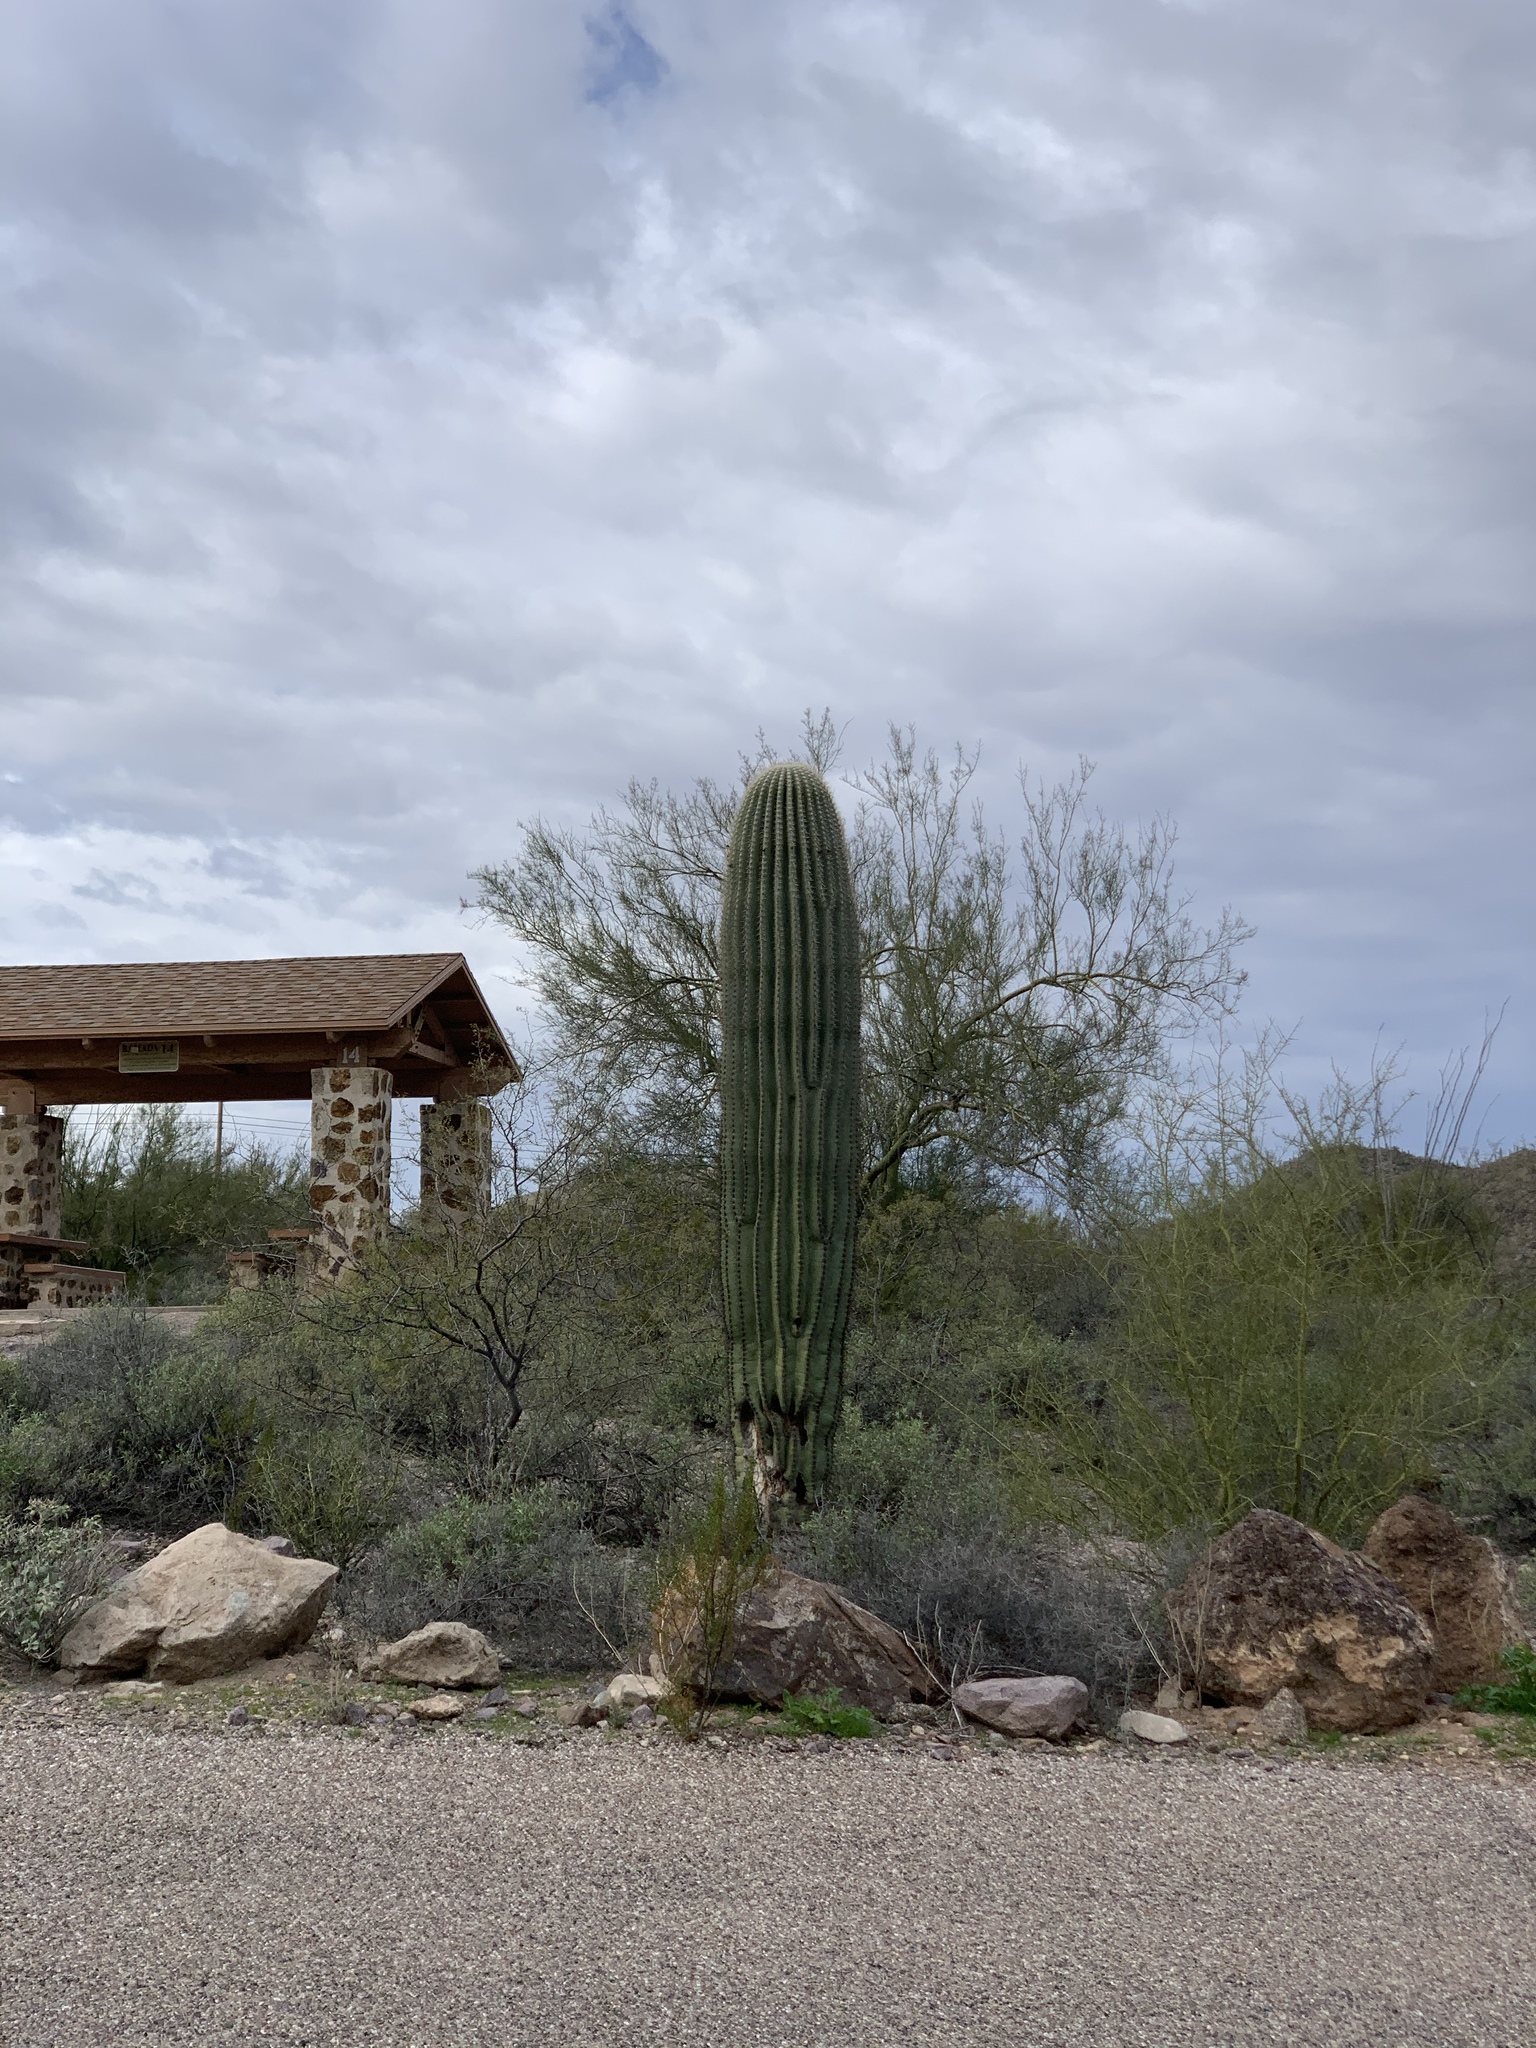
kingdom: Plantae
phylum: Tracheophyta
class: Magnoliopsida
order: Caryophyllales
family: Cactaceae
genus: Carnegiea
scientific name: Carnegiea gigantea
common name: Saguaro
